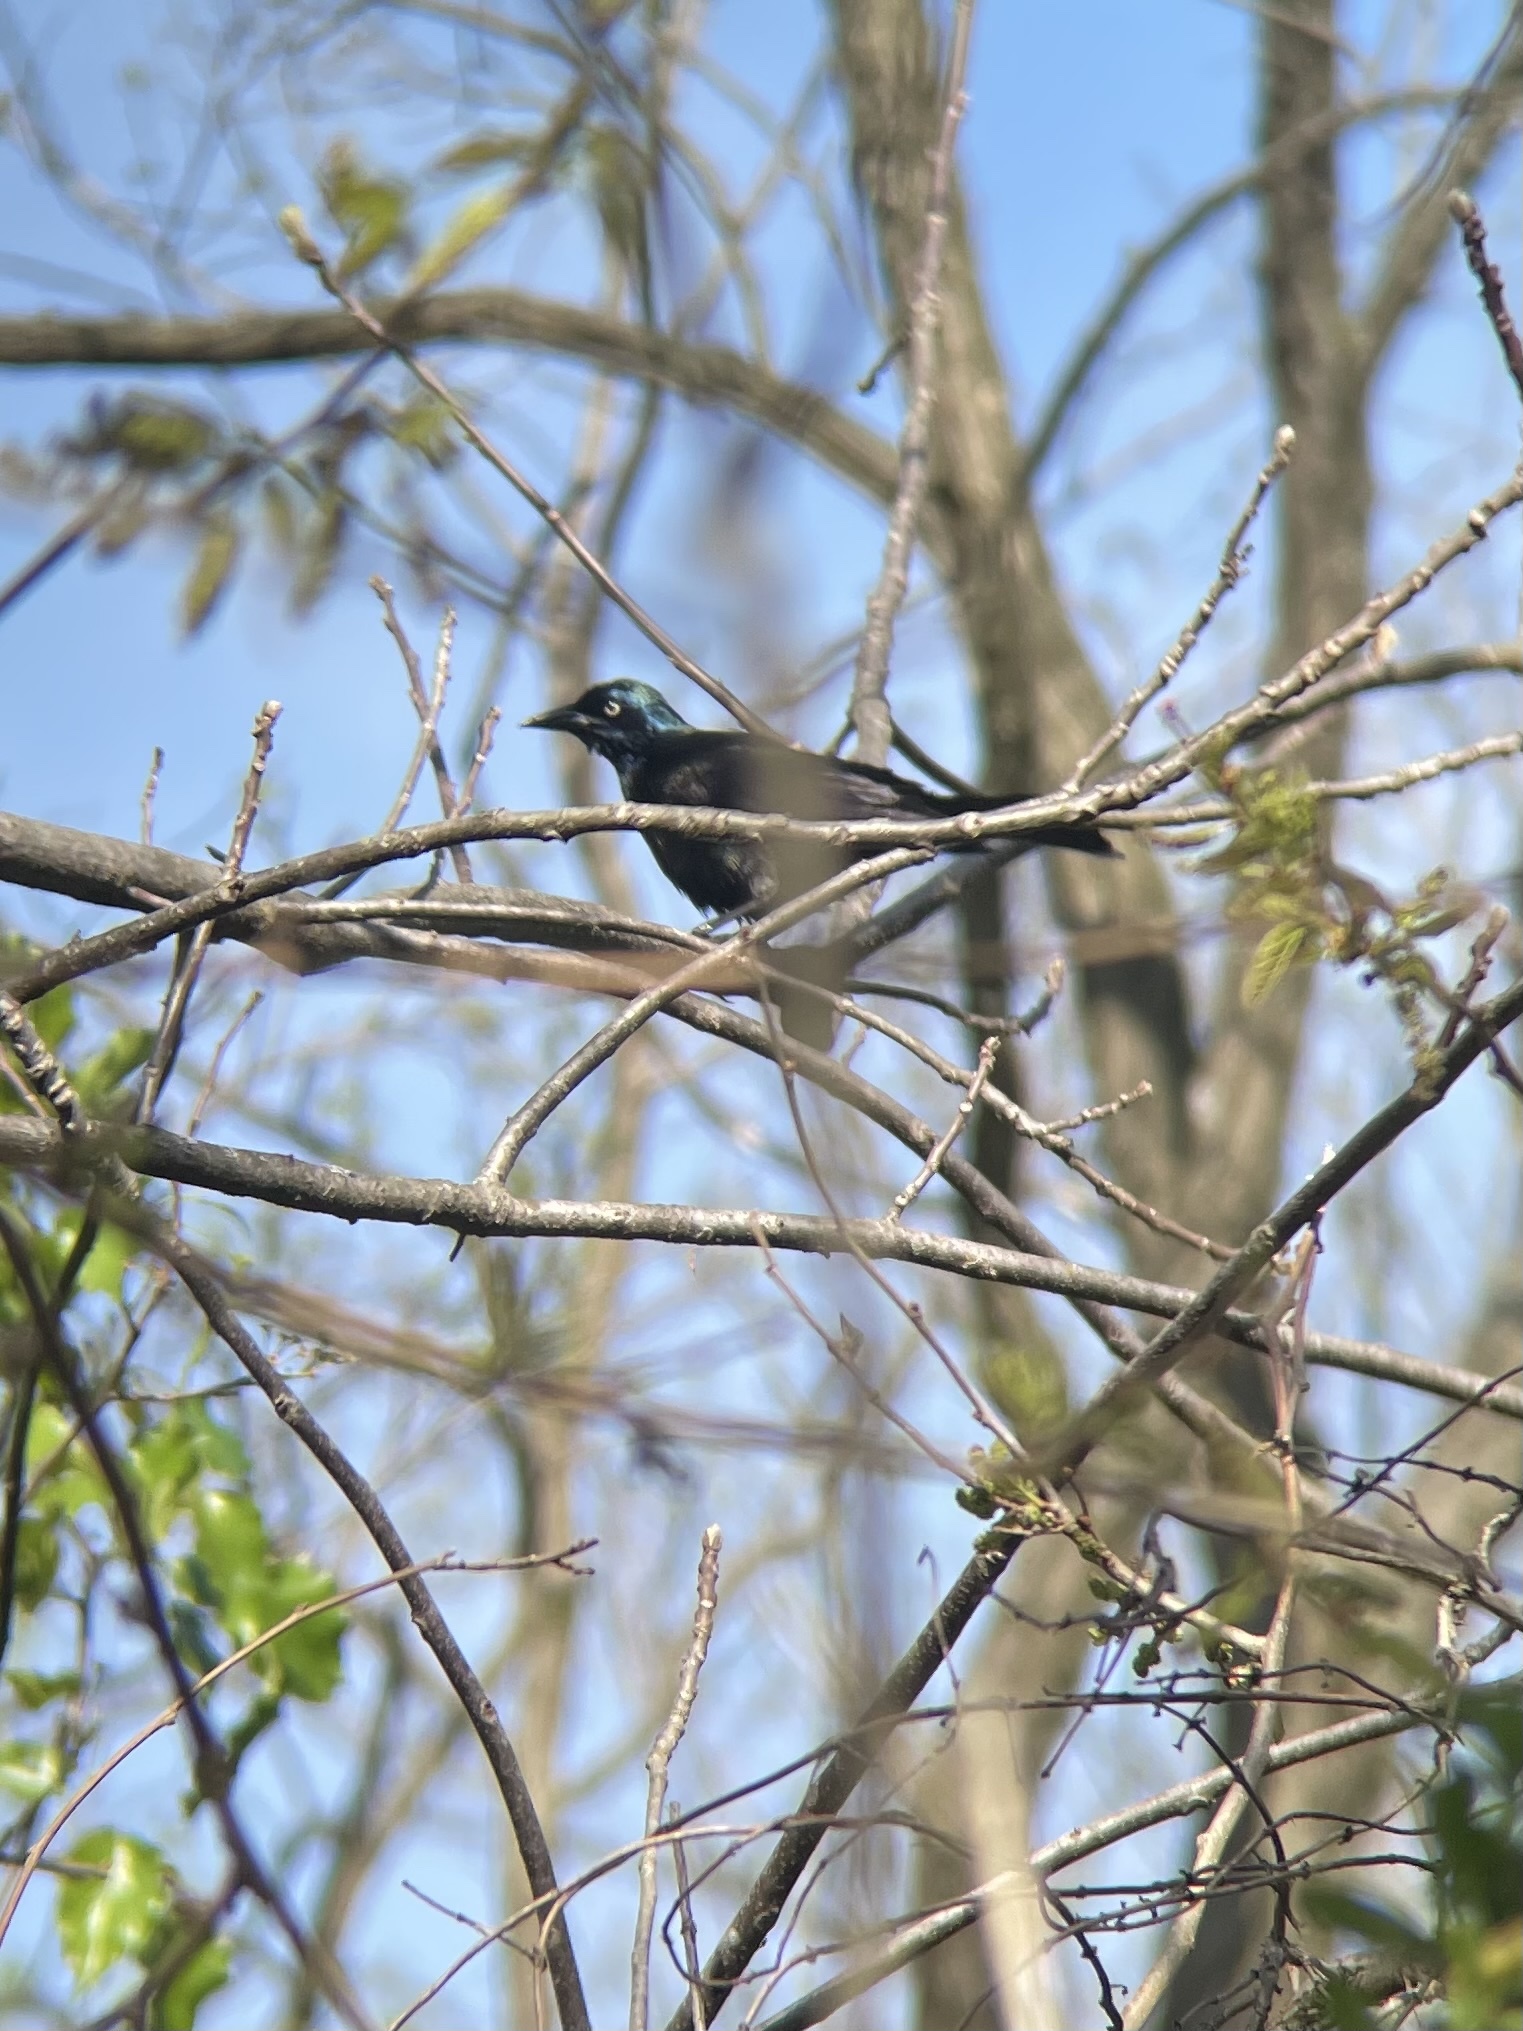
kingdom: Animalia
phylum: Chordata
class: Aves
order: Passeriformes
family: Icteridae
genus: Quiscalus
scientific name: Quiscalus quiscula
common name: Common grackle
